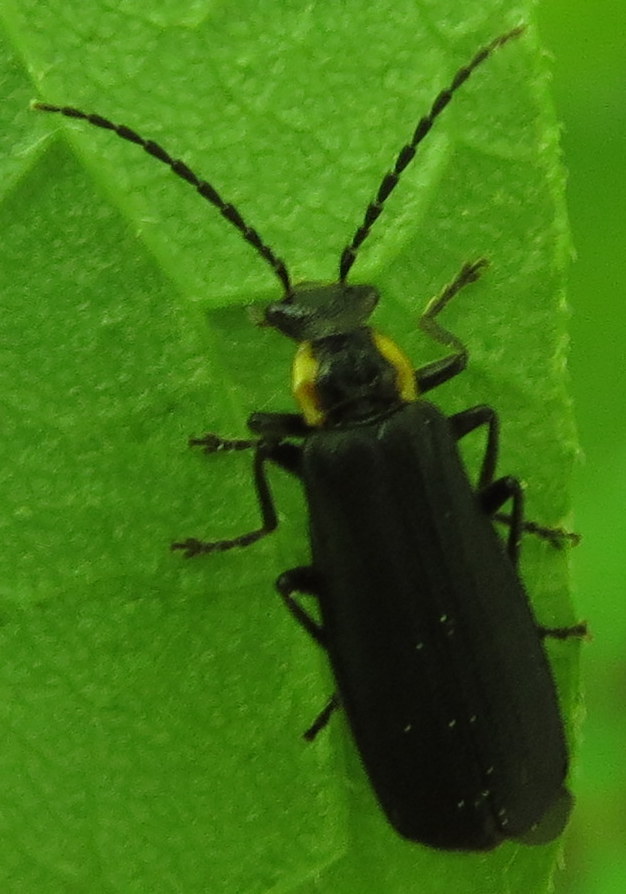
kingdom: Animalia
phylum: Arthropoda
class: Insecta
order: Coleoptera
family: Cantharidae
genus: Podabrus
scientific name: Podabrus rugosulus
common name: Wrinkled soldier beetle
